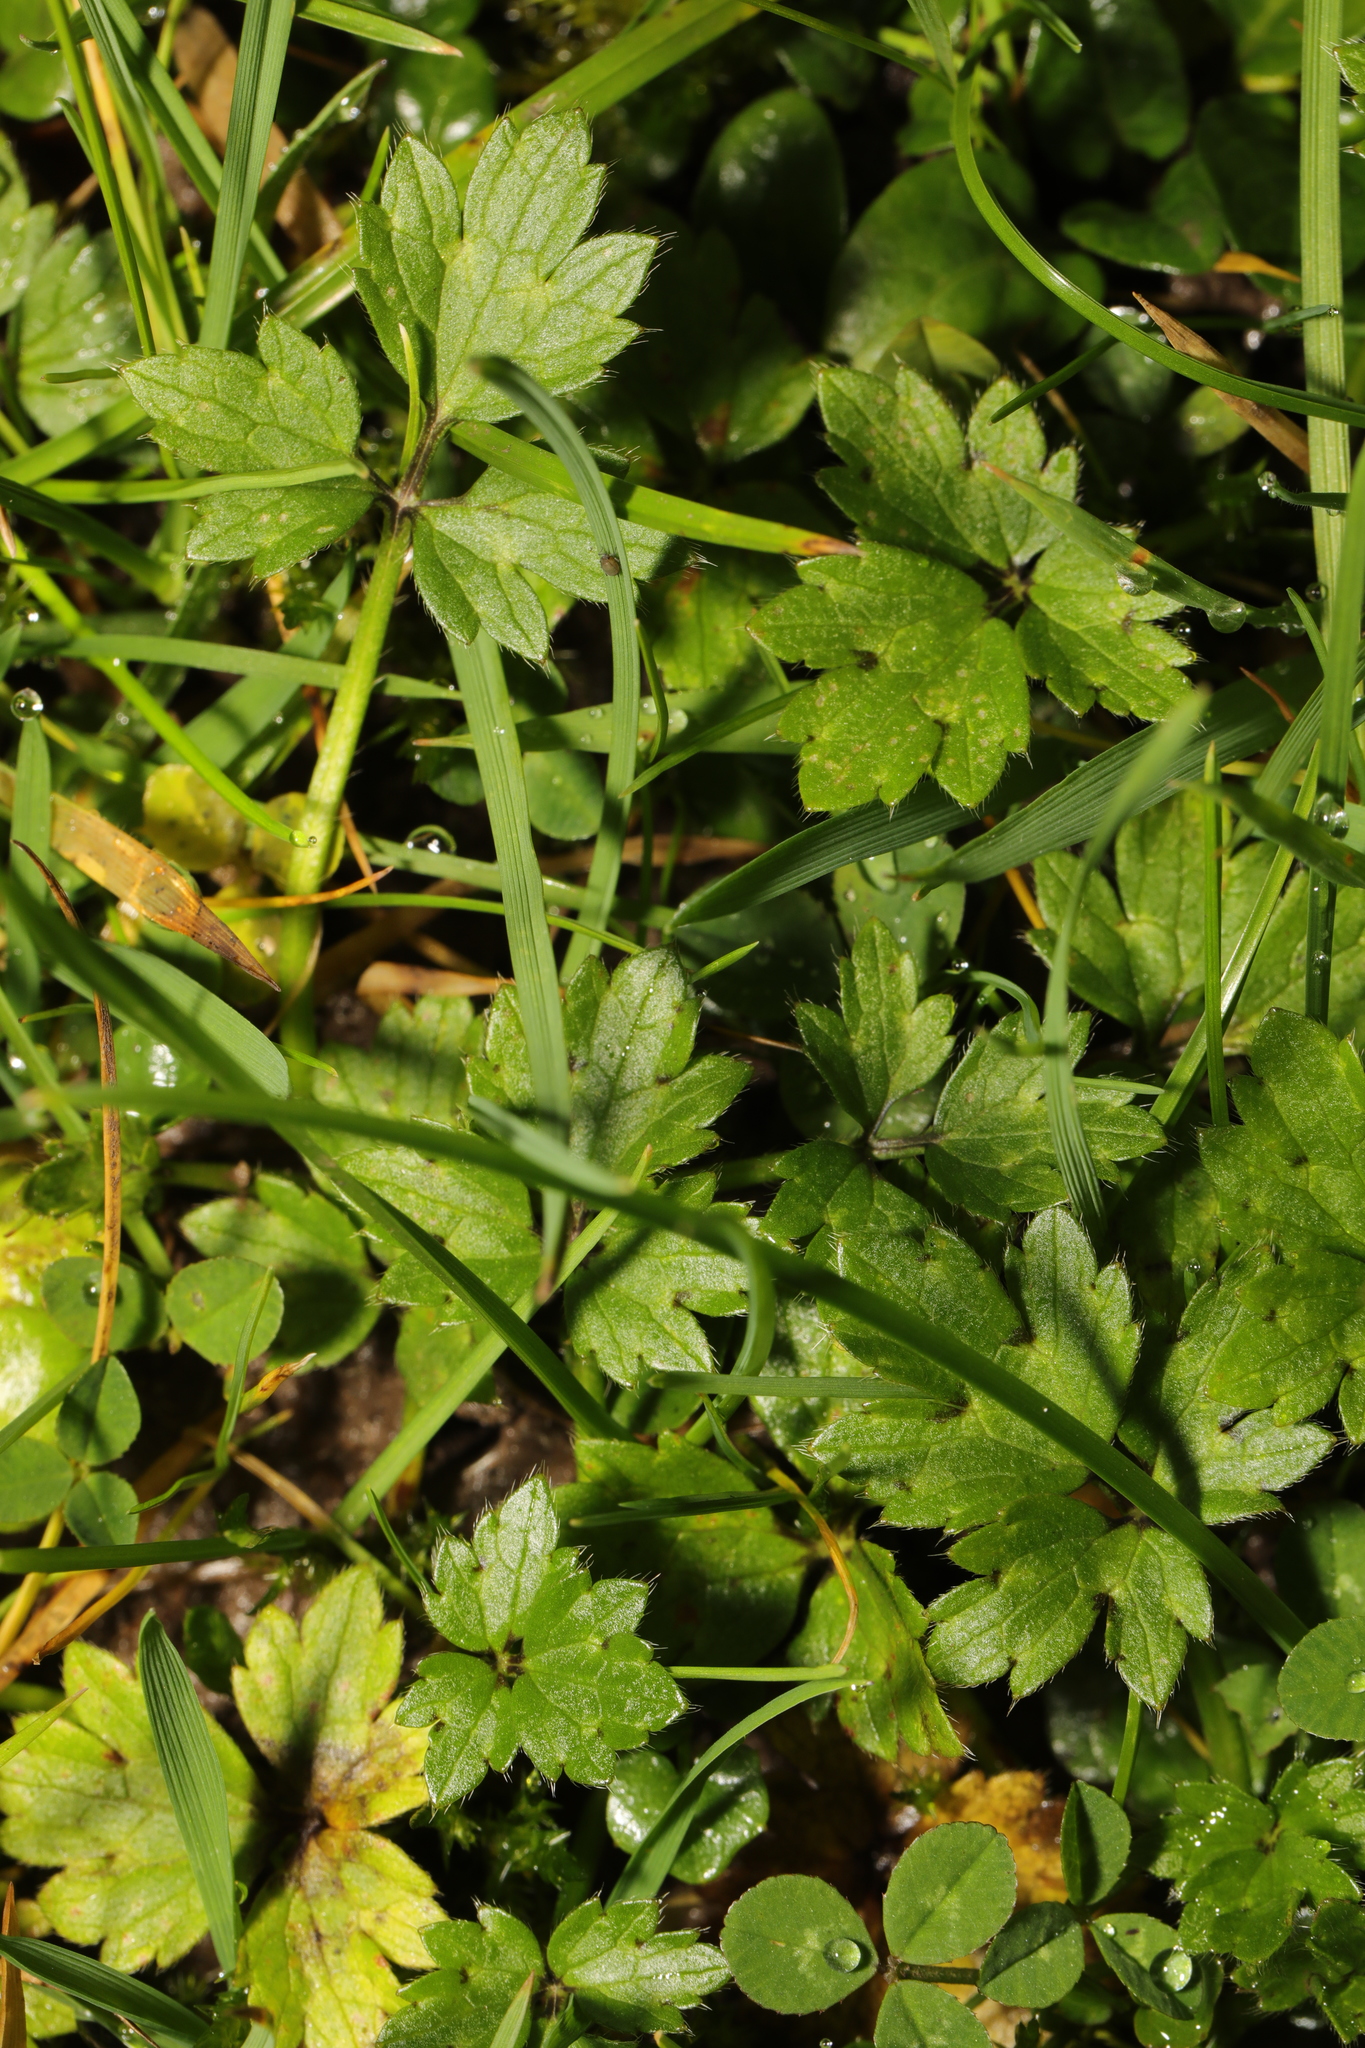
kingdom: Plantae
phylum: Tracheophyta
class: Magnoliopsida
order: Ranunculales
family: Ranunculaceae
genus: Ranunculus
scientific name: Ranunculus repens
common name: Creeping buttercup
